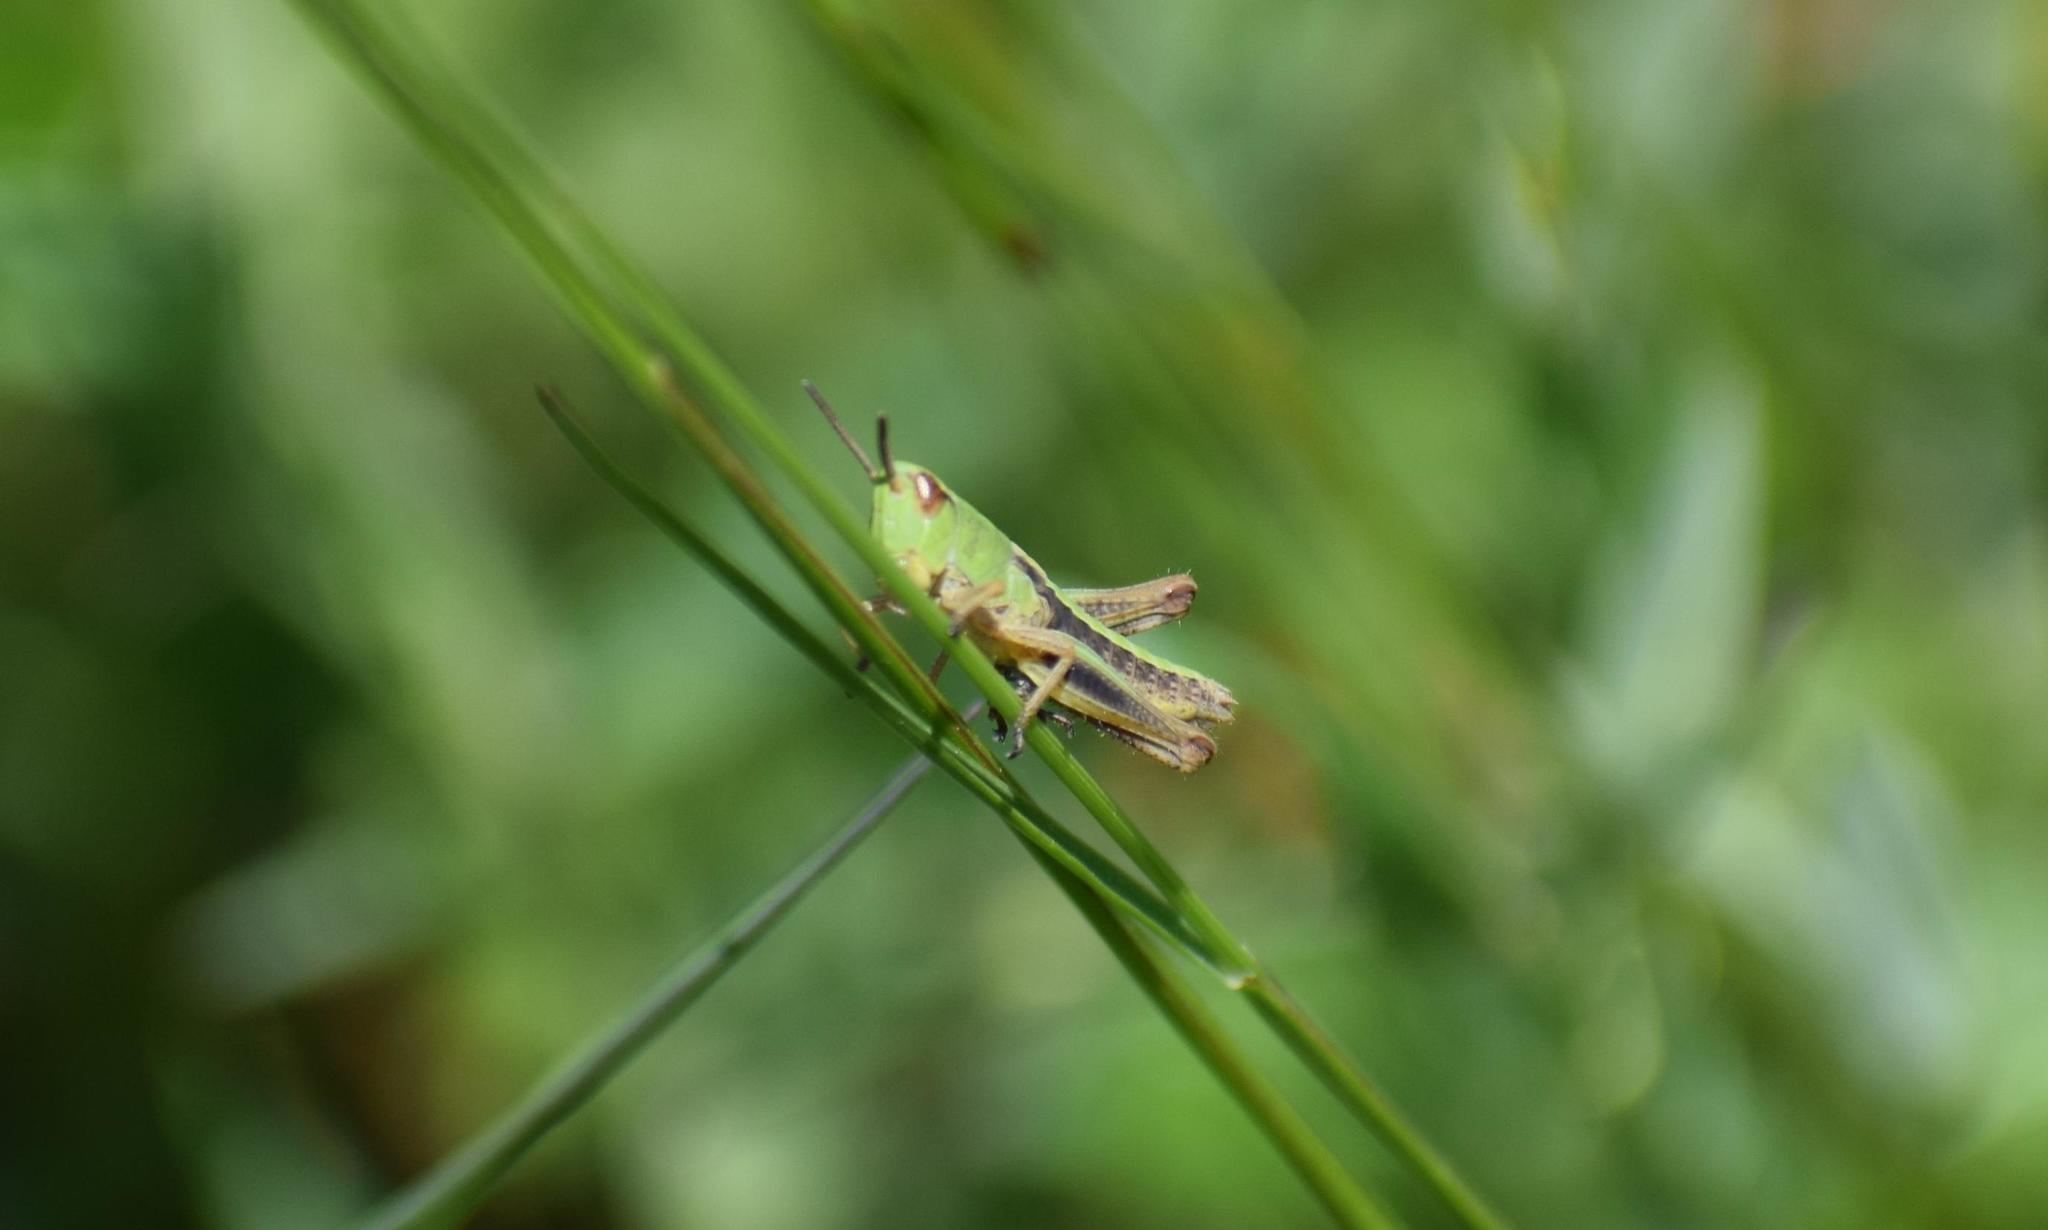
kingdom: Animalia
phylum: Arthropoda
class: Insecta
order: Orthoptera
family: Acrididae
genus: Pseudochorthippus
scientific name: Pseudochorthippus parallelus
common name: Meadow grasshopper
